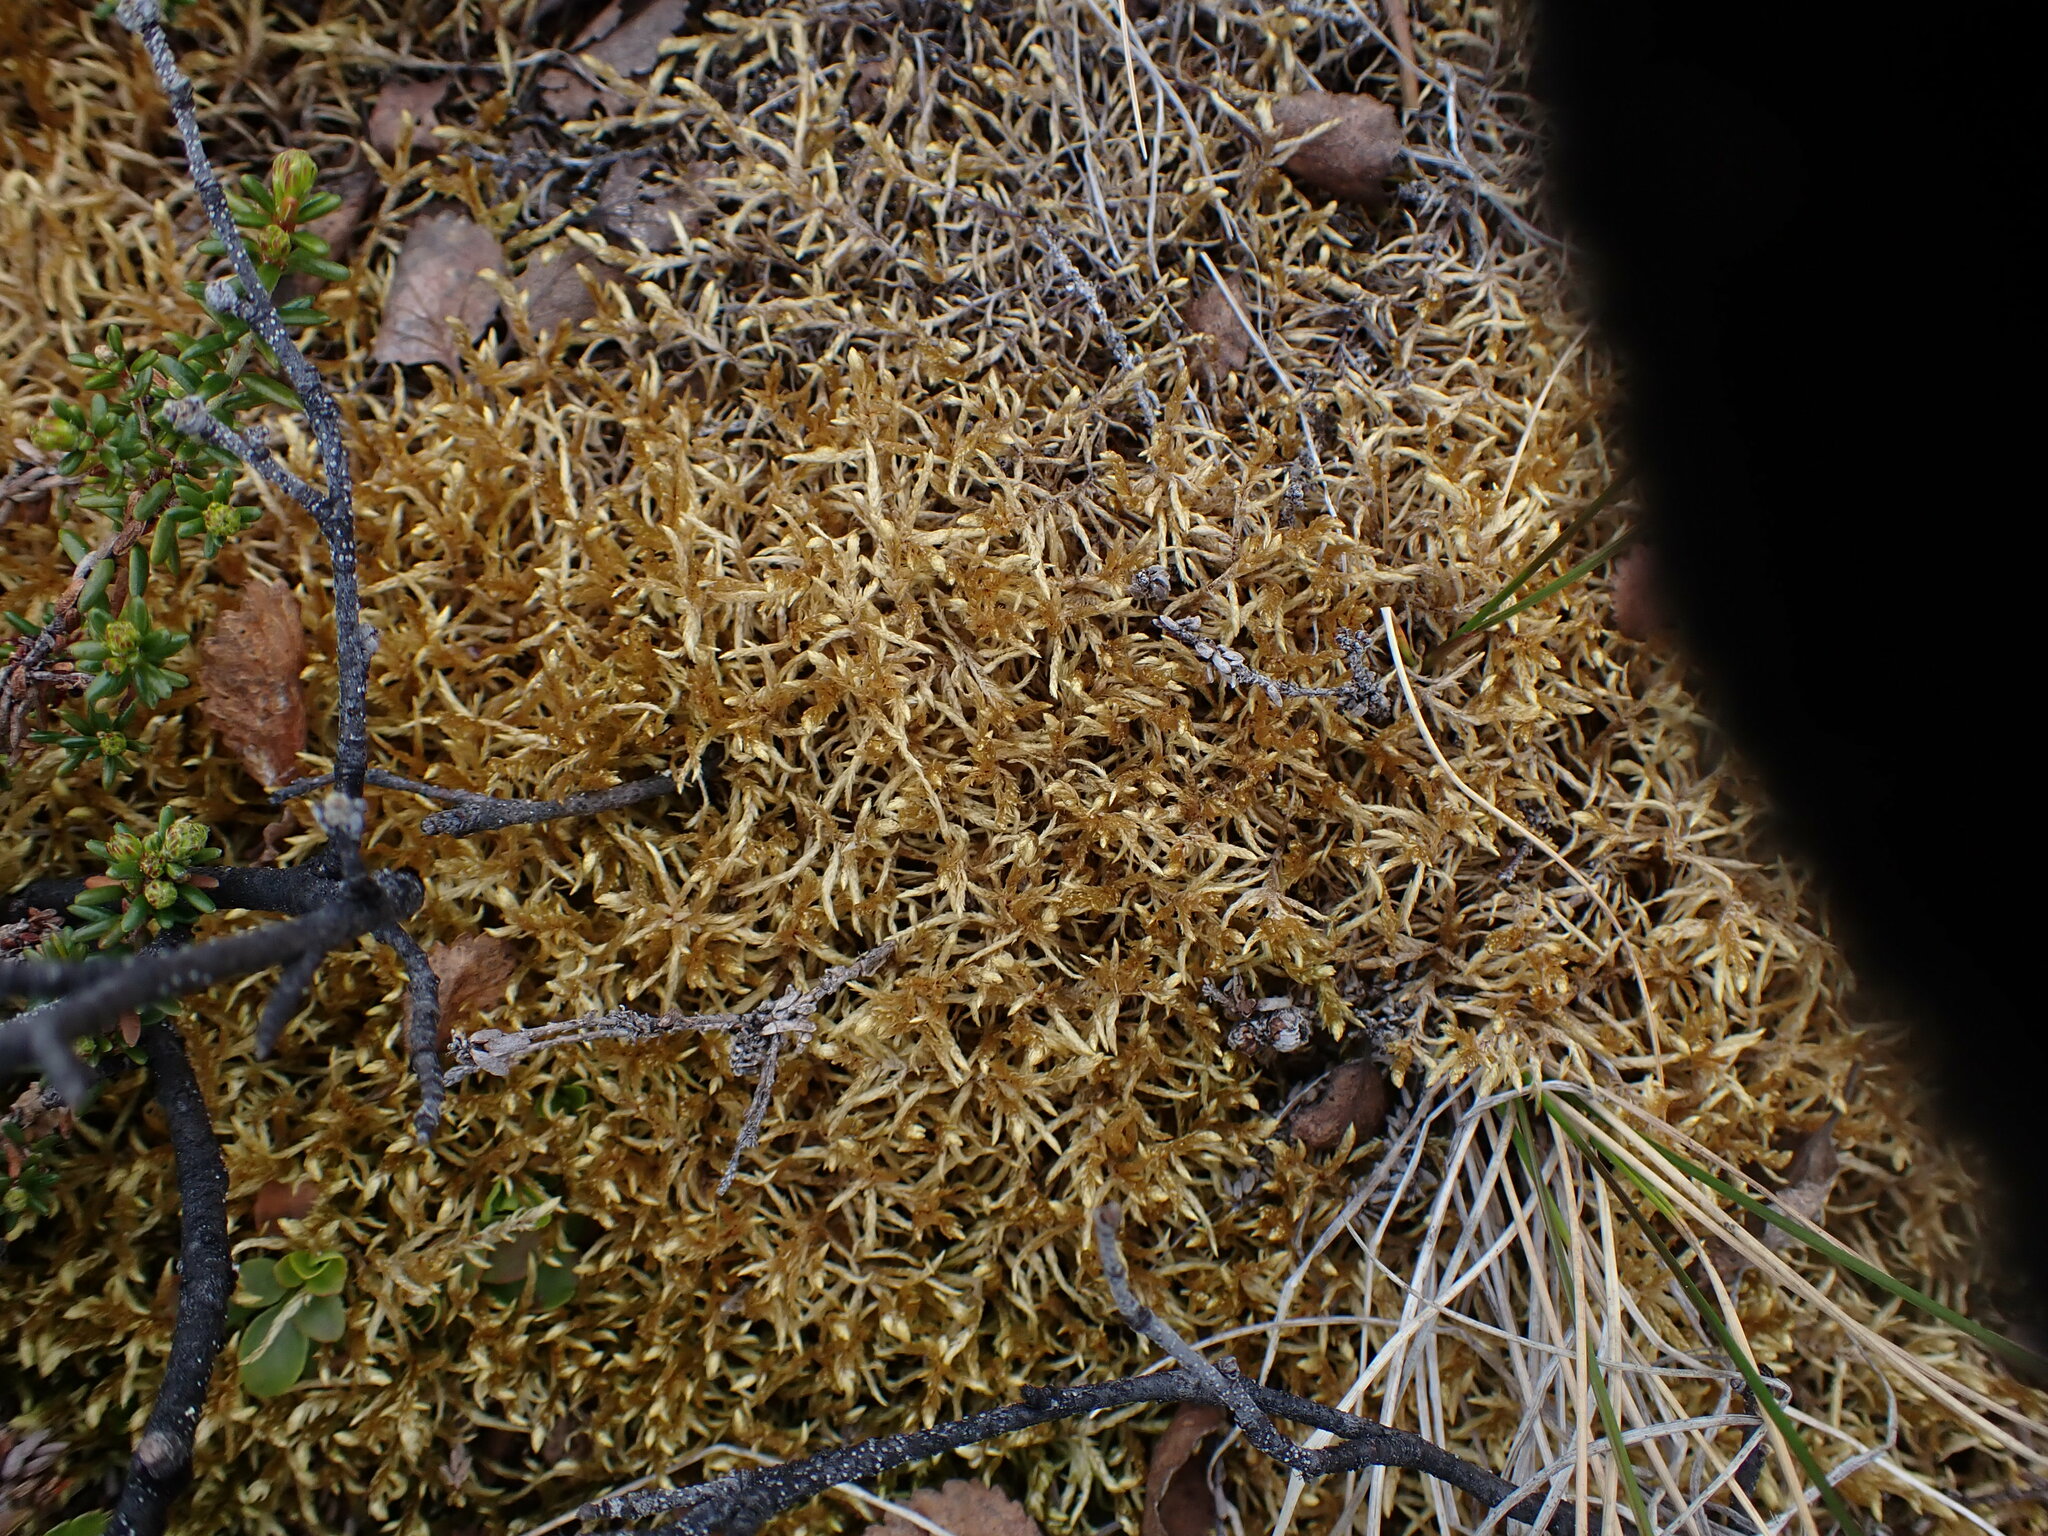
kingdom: Plantae
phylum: Bryophyta
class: Bryopsida
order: Hypnales
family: Hylocomiaceae
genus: Pleurozium
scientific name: Pleurozium schreberi
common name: Red-stemmed feather moss
